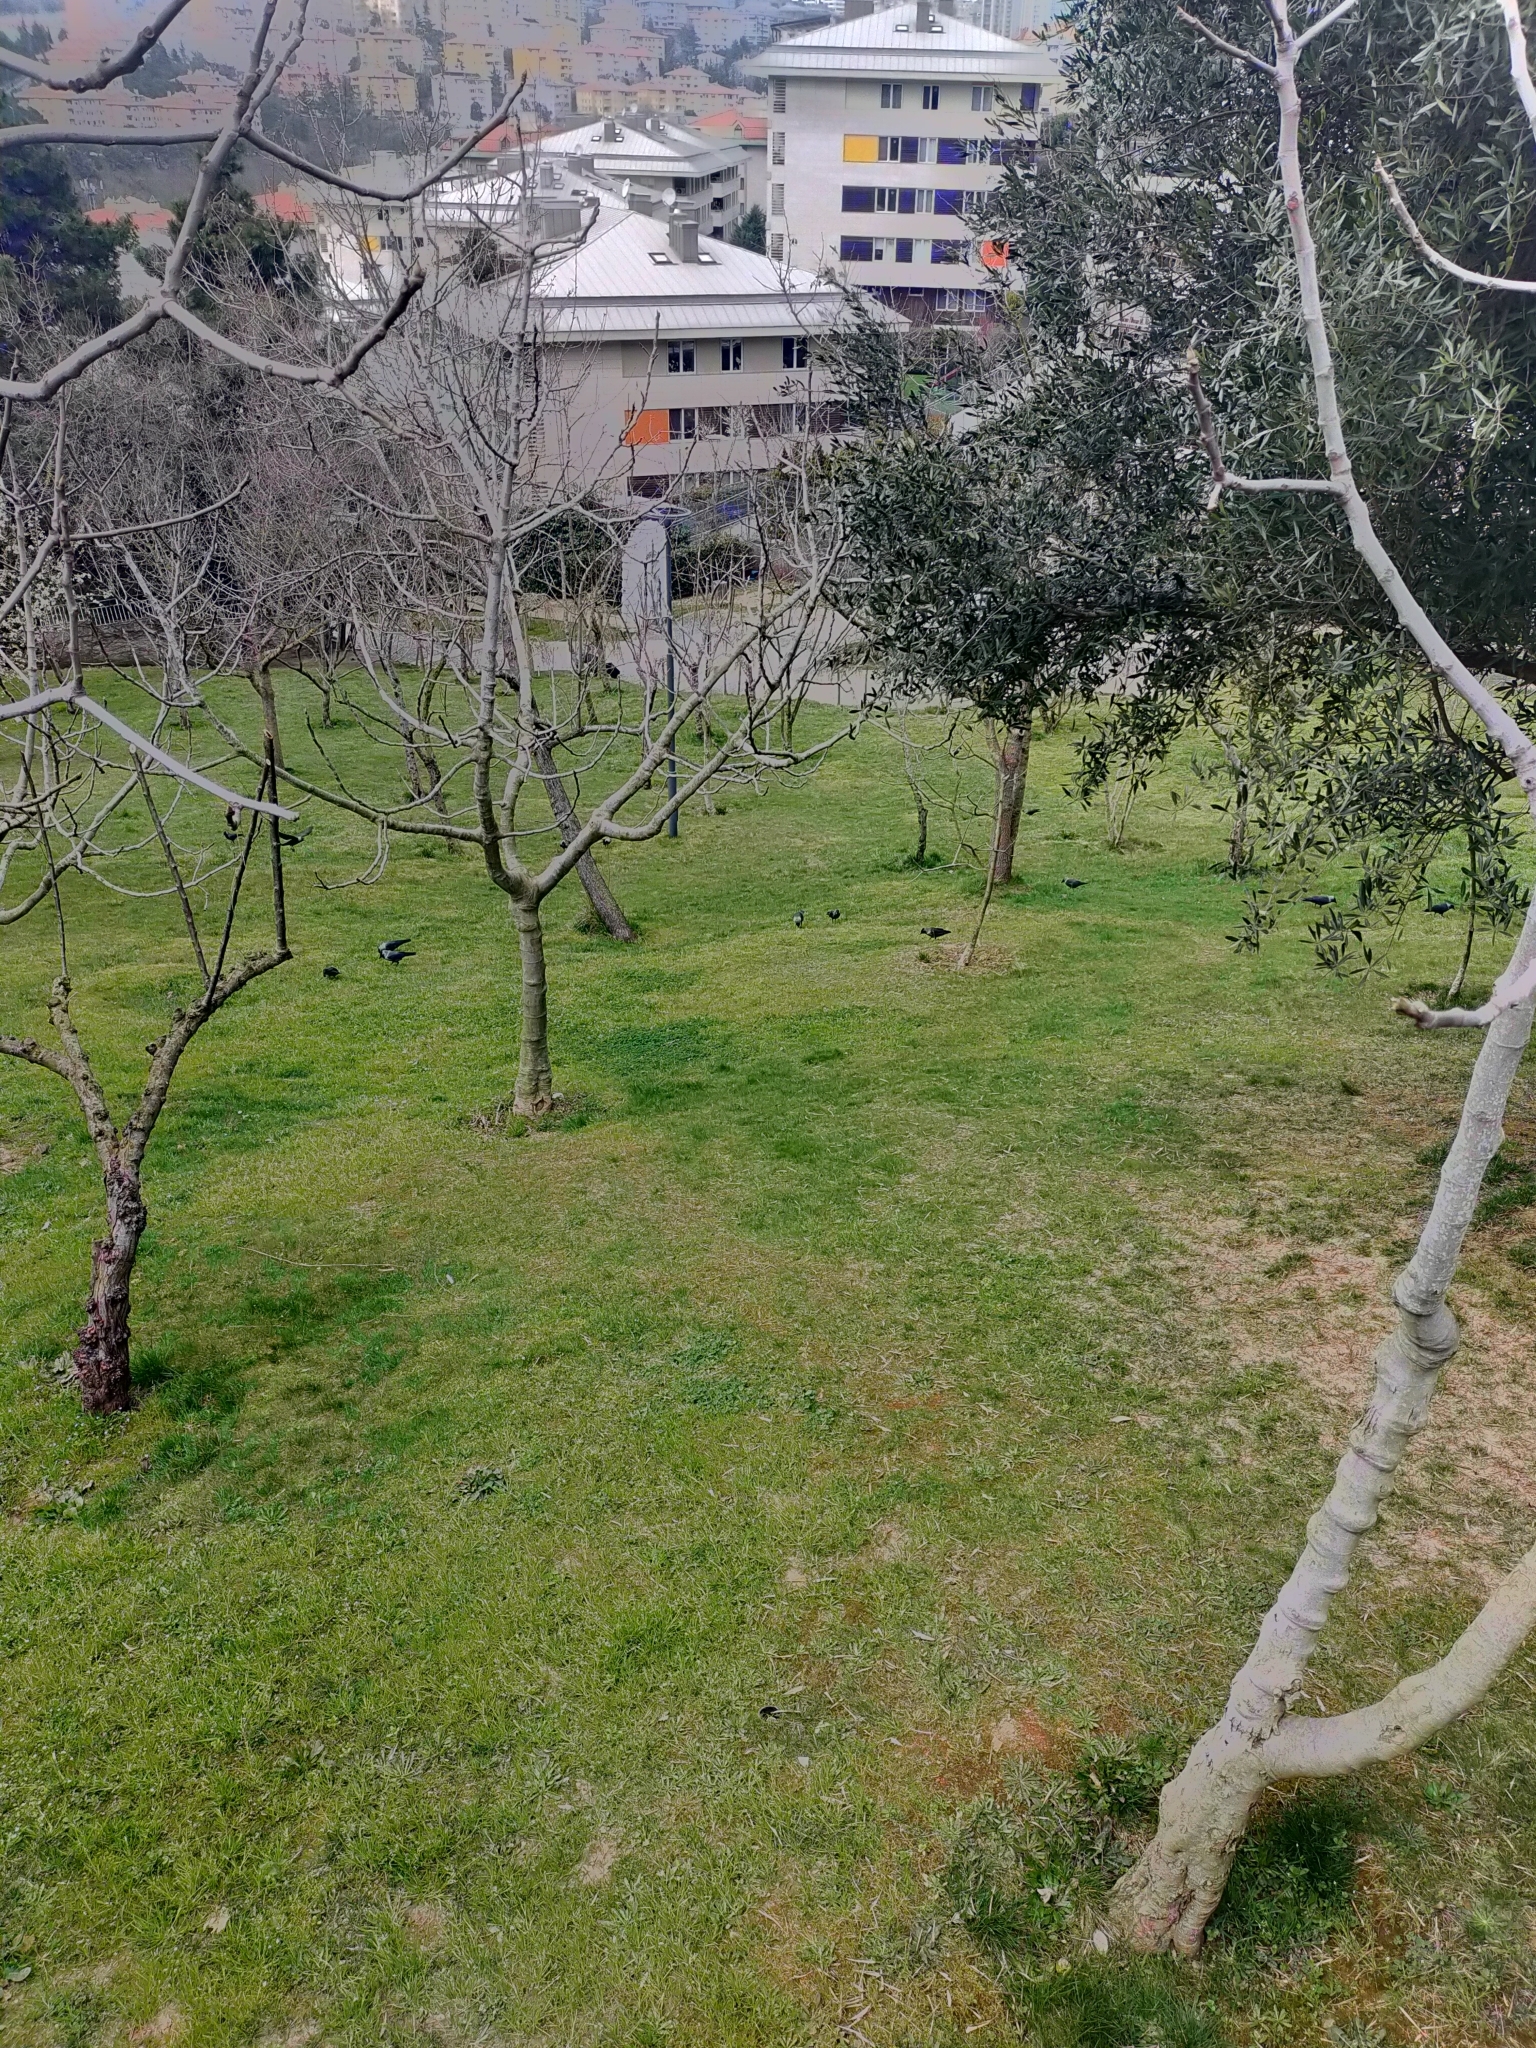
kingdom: Animalia
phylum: Chordata
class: Aves
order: Passeriformes
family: Corvidae
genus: Coloeus
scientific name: Coloeus monedula
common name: Western jackdaw
